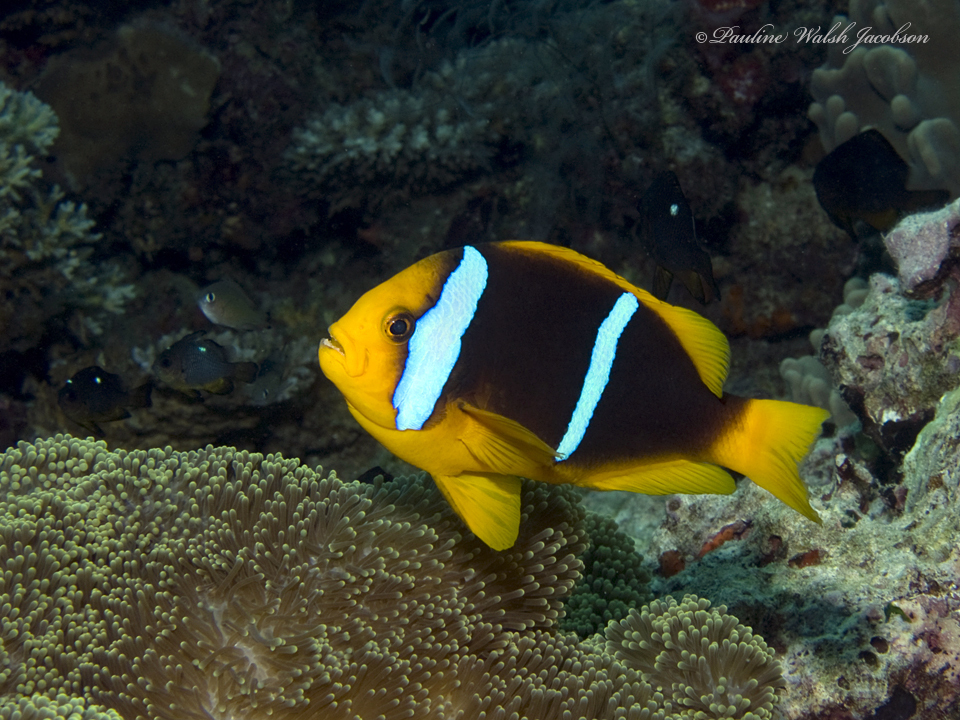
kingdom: Animalia
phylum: Chordata
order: Perciformes
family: Pomacentridae
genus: Amphiprion
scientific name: Amphiprion chrysopterus
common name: Orange-fin anemonefish
